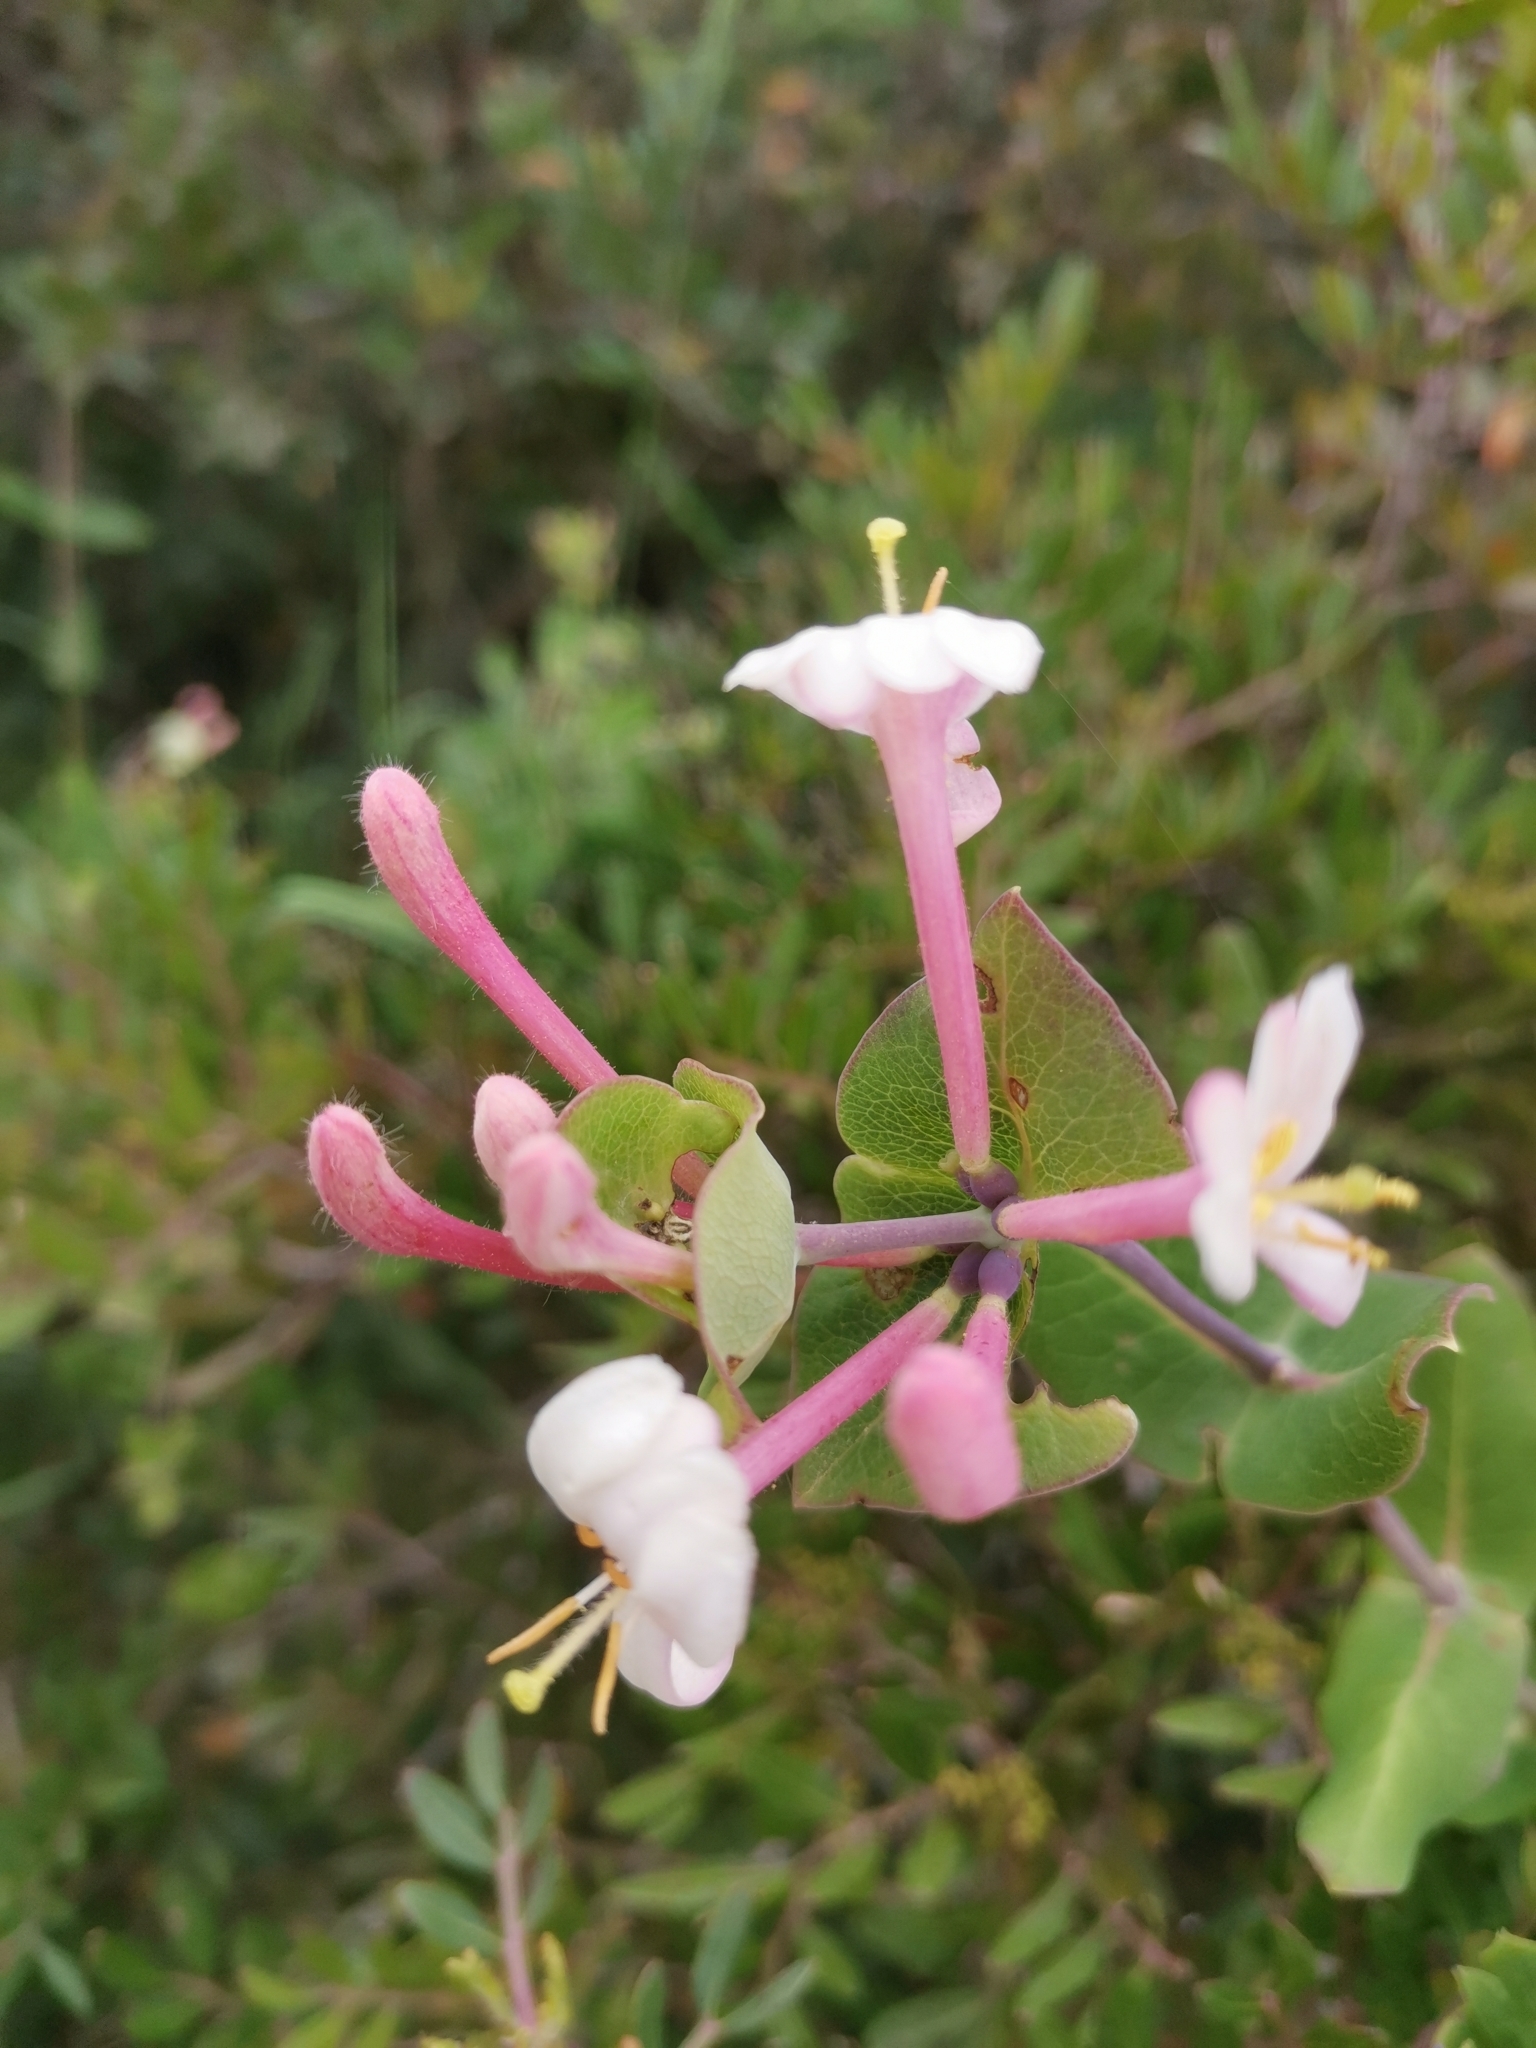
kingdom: Plantae
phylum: Tracheophyta
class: Magnoliopsida
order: Dipsacales
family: Caprifoliaceae
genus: Lonicera
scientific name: Lonicera implexa
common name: Minorca honeysuckle
